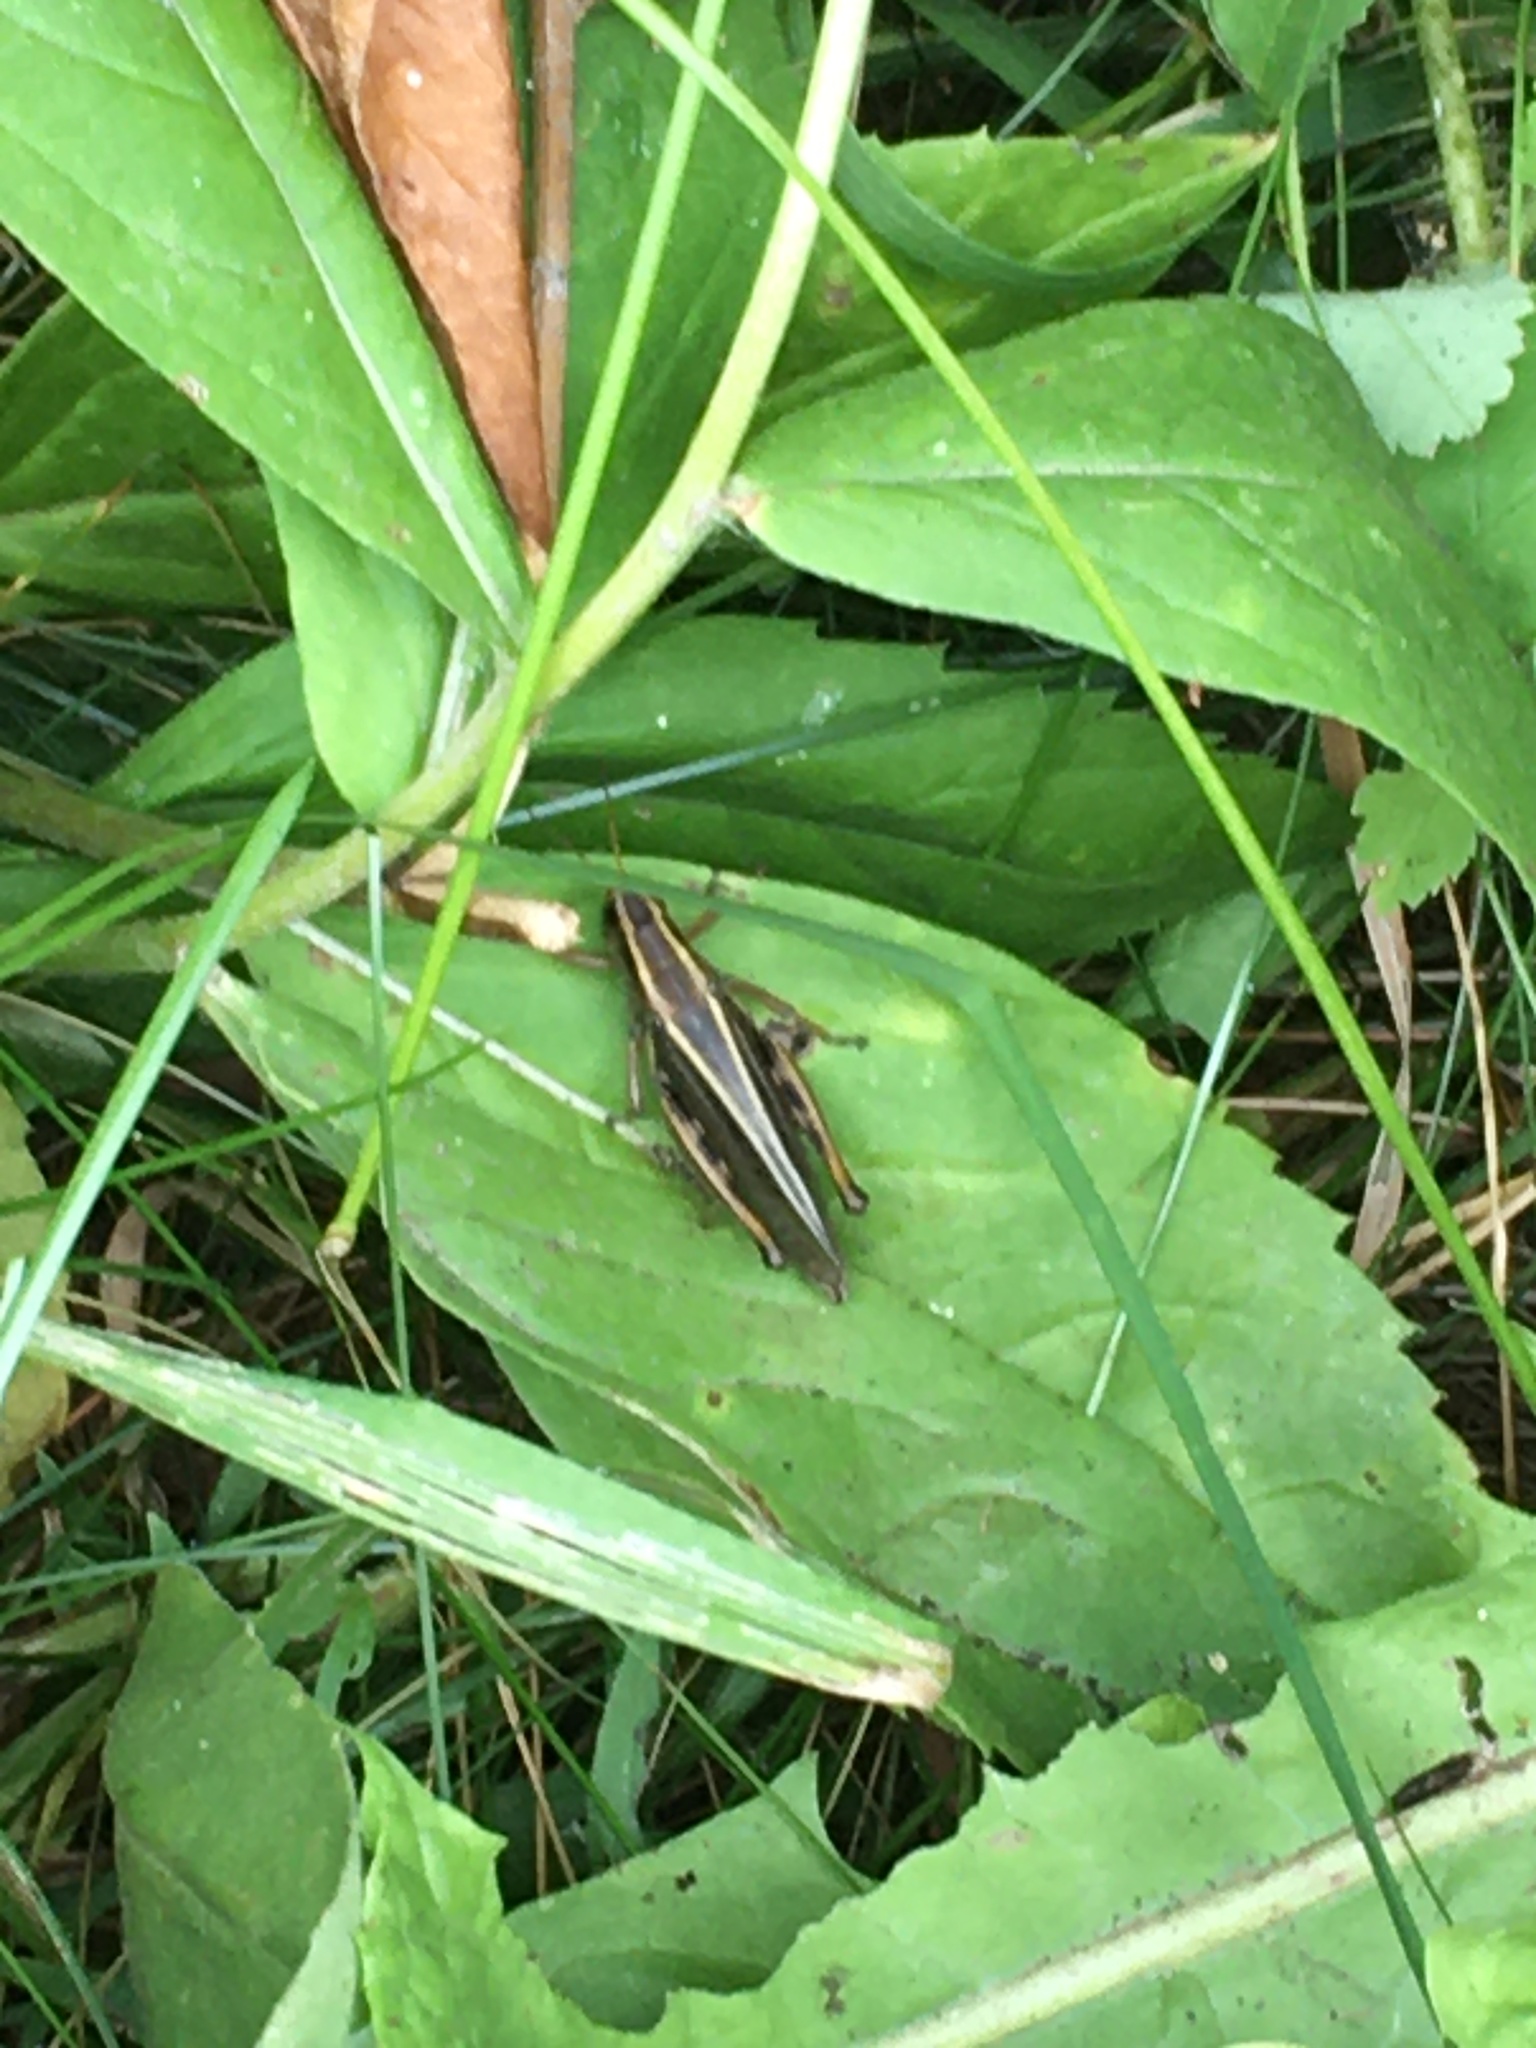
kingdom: Animalia
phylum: Arthropoda
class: Insecta
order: Orthoptera
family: Acrididae
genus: Melanoplus
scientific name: Melanoplus bivittatus
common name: Two-striped grasshopper
